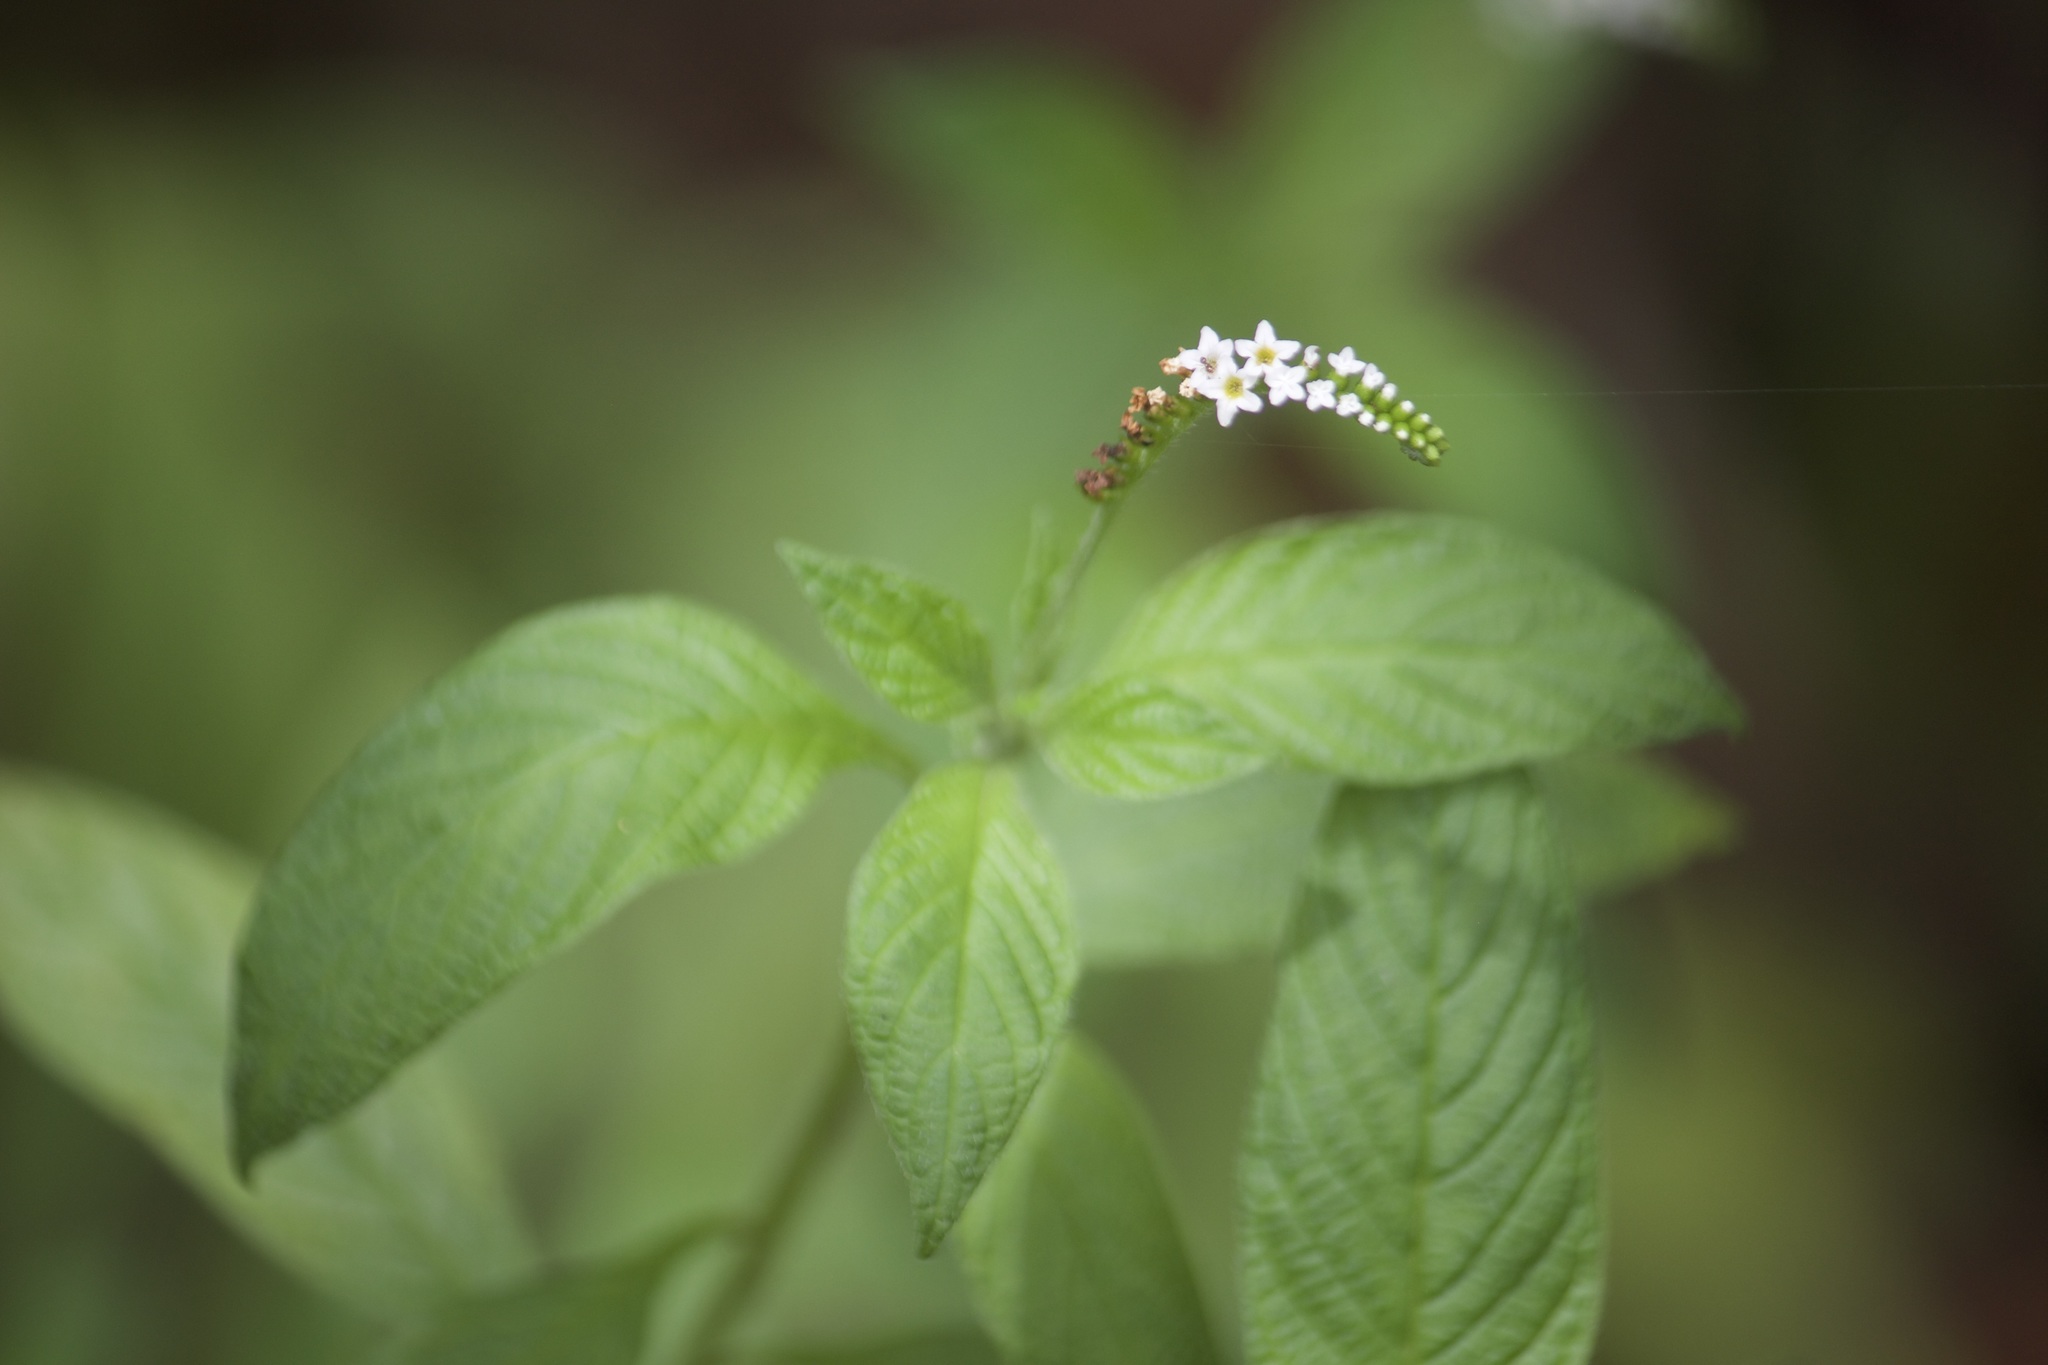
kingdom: Plantae
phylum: Tracheophyta
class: Magnoliopsida
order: Boraginales
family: Heliotropiaceae
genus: Heliotropium
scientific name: Heliotropium angiospermum
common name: Eye bright
